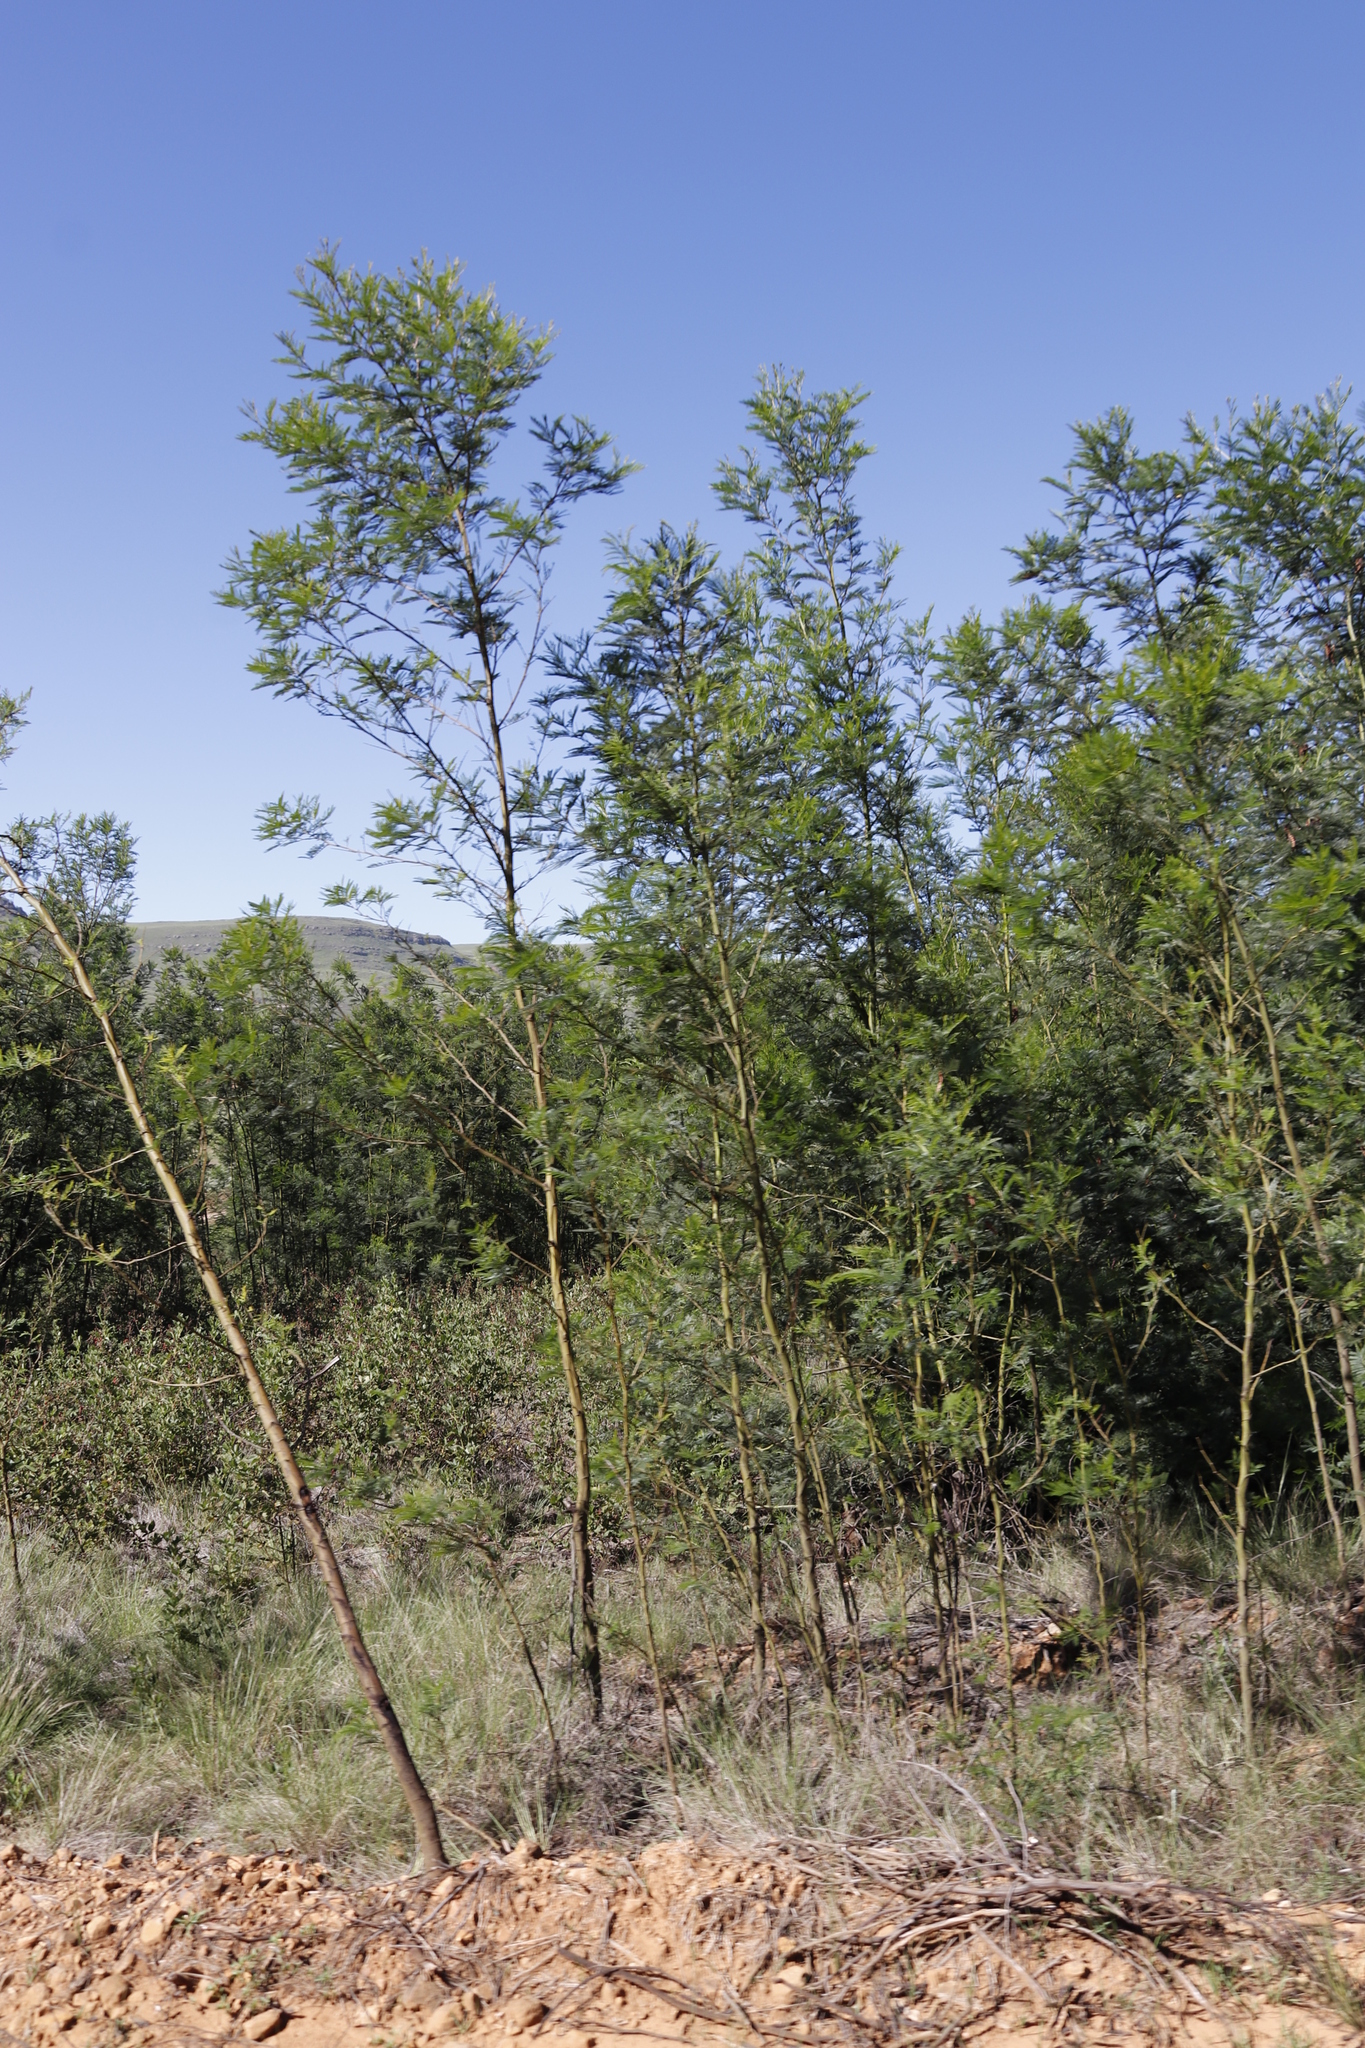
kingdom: Plantae
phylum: Tracheophyta
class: Magnoliopsida
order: Fabales
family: Fabaceae
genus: Acacia
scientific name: Acacia decurrens
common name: Green wattle
